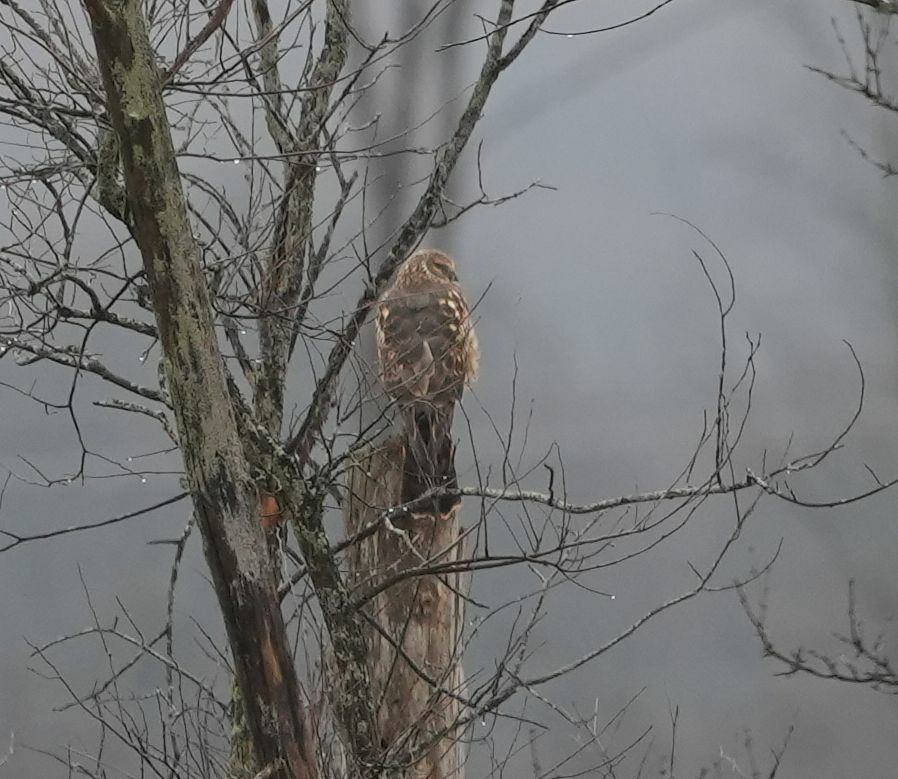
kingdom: Animalia
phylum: Chordata
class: Aves
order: Accipitriformes
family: Accipitridae
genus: Circus
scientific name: Circus cyaneus
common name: Hen harrier
